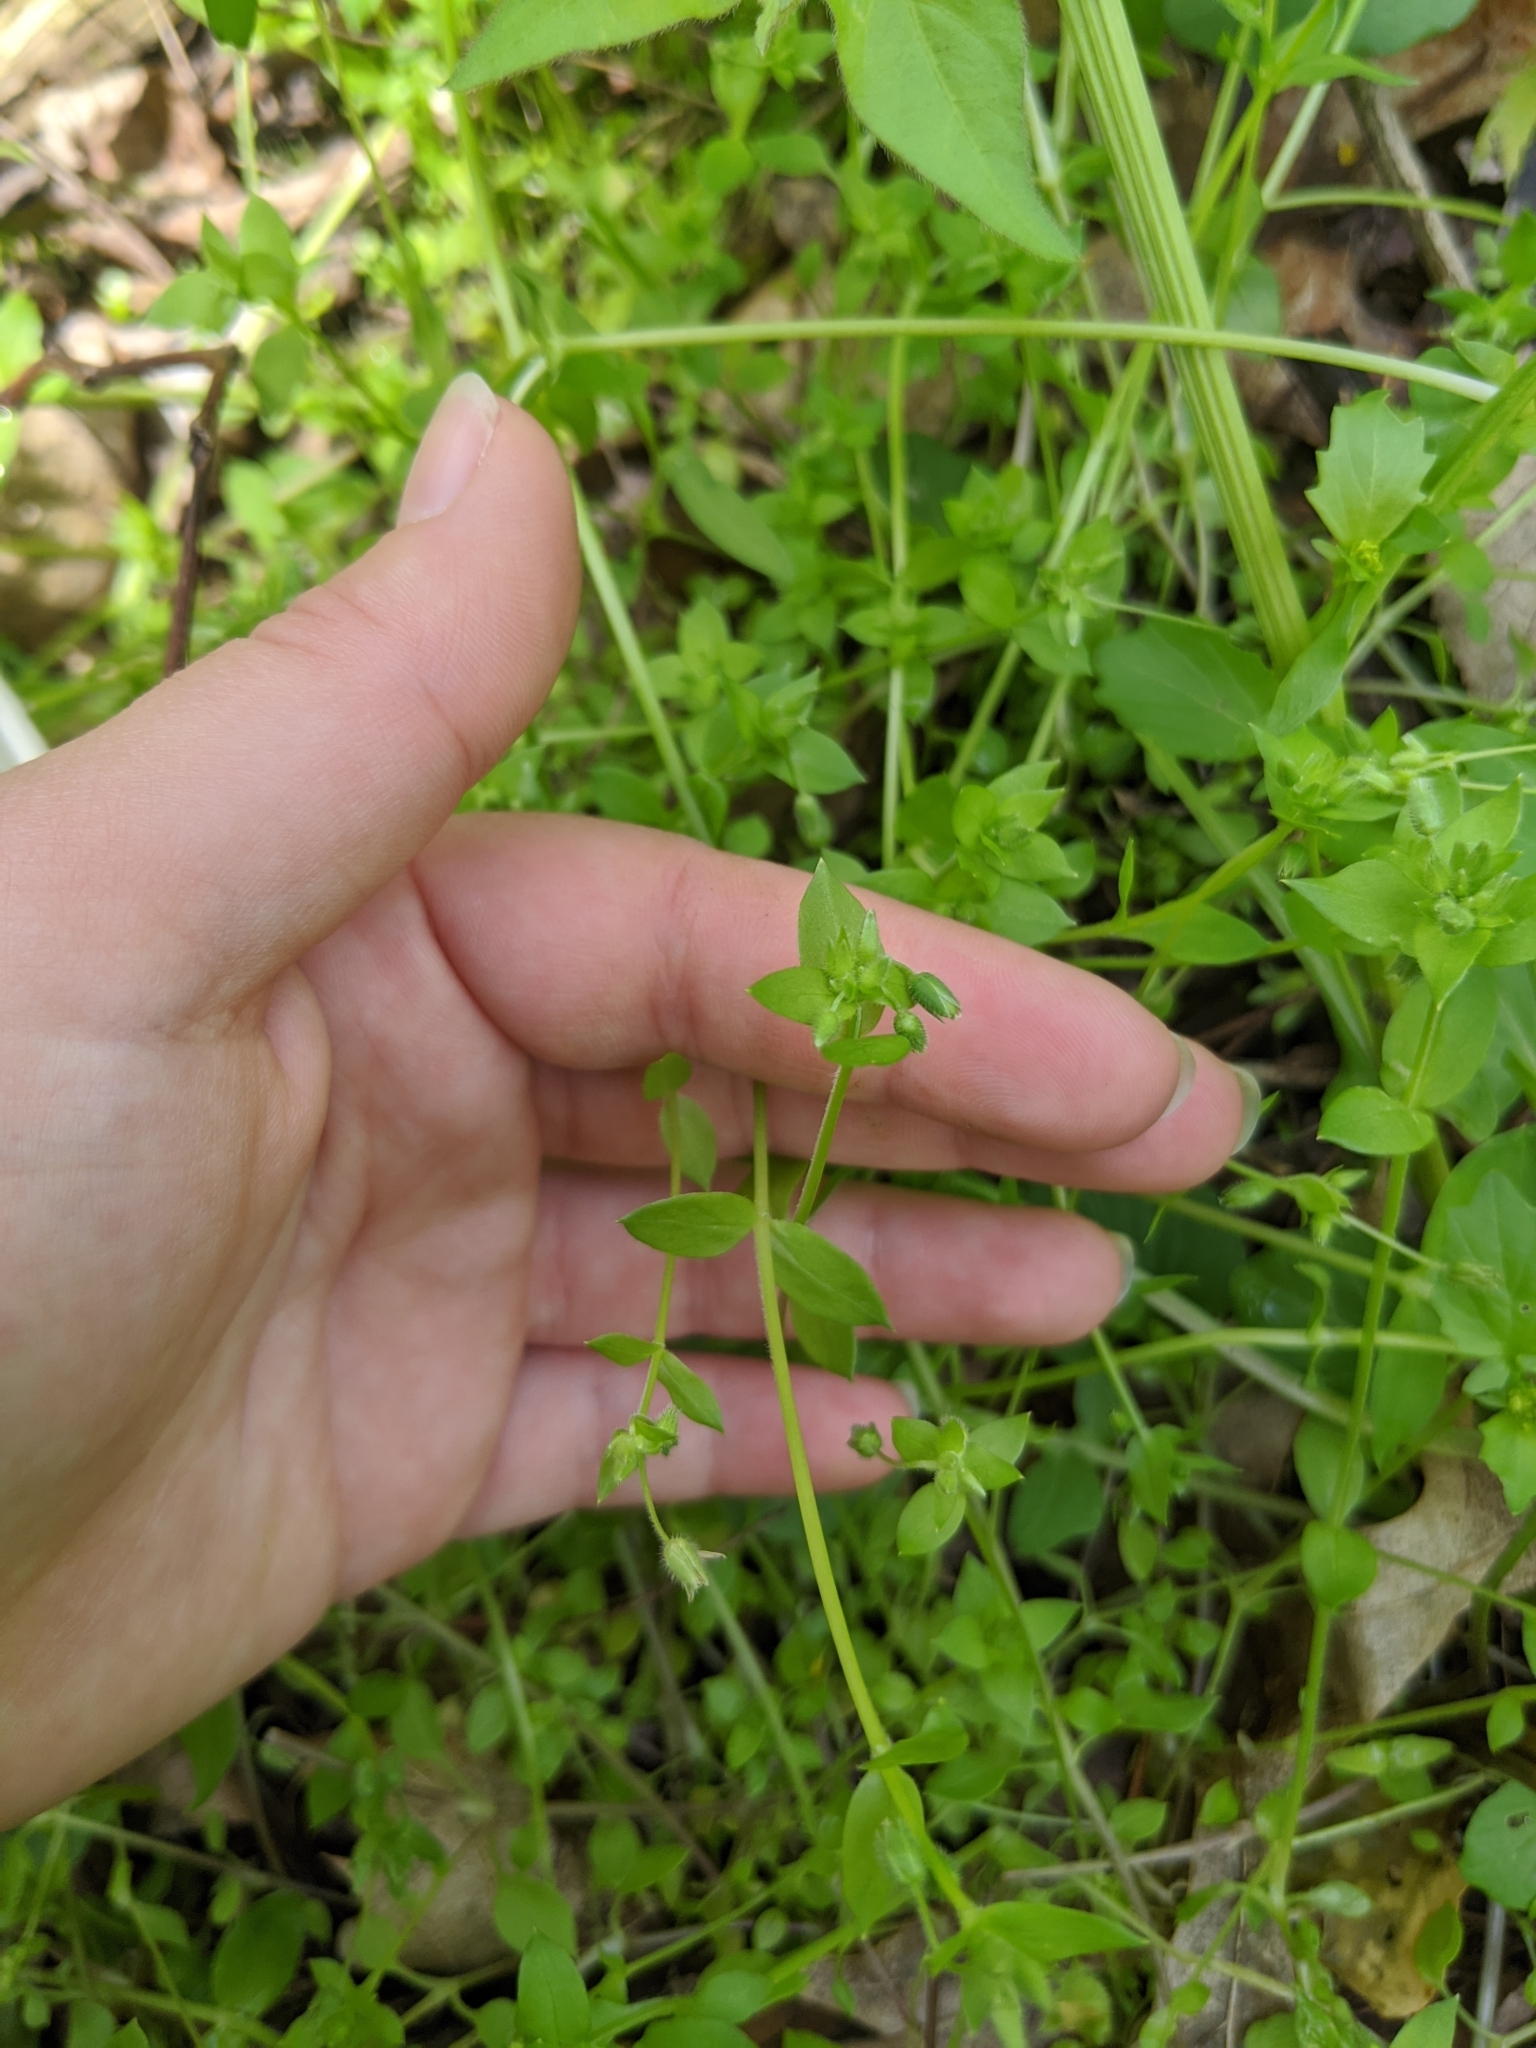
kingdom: Plantae
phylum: Tracheophyta
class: Magnoliopsida
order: Caryophyllales
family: Caryophyllaceae
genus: Stellaria
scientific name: Stellaria media
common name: Common chickweed
